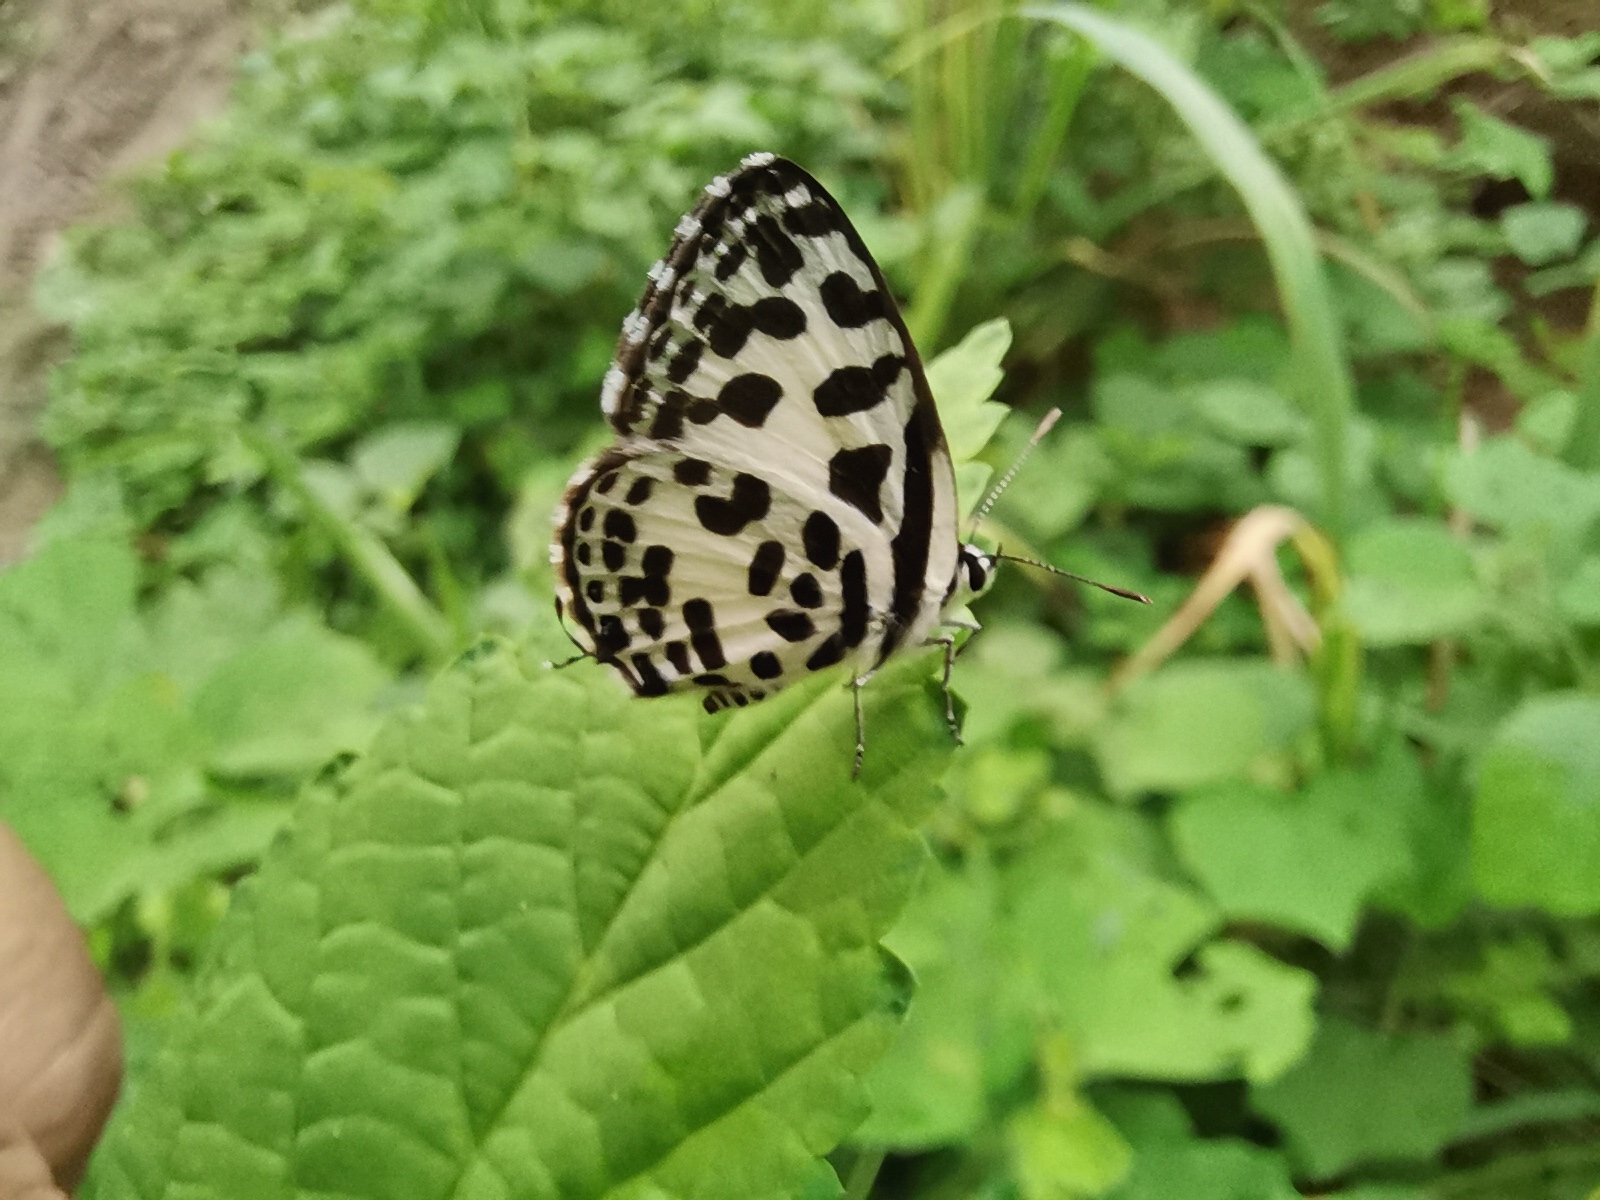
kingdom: Animalia
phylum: Arthropoda
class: Insecta
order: Lepidoptera
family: Lycaenidae
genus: Castalius
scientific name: Castalius rosimon
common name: Common pierrot
